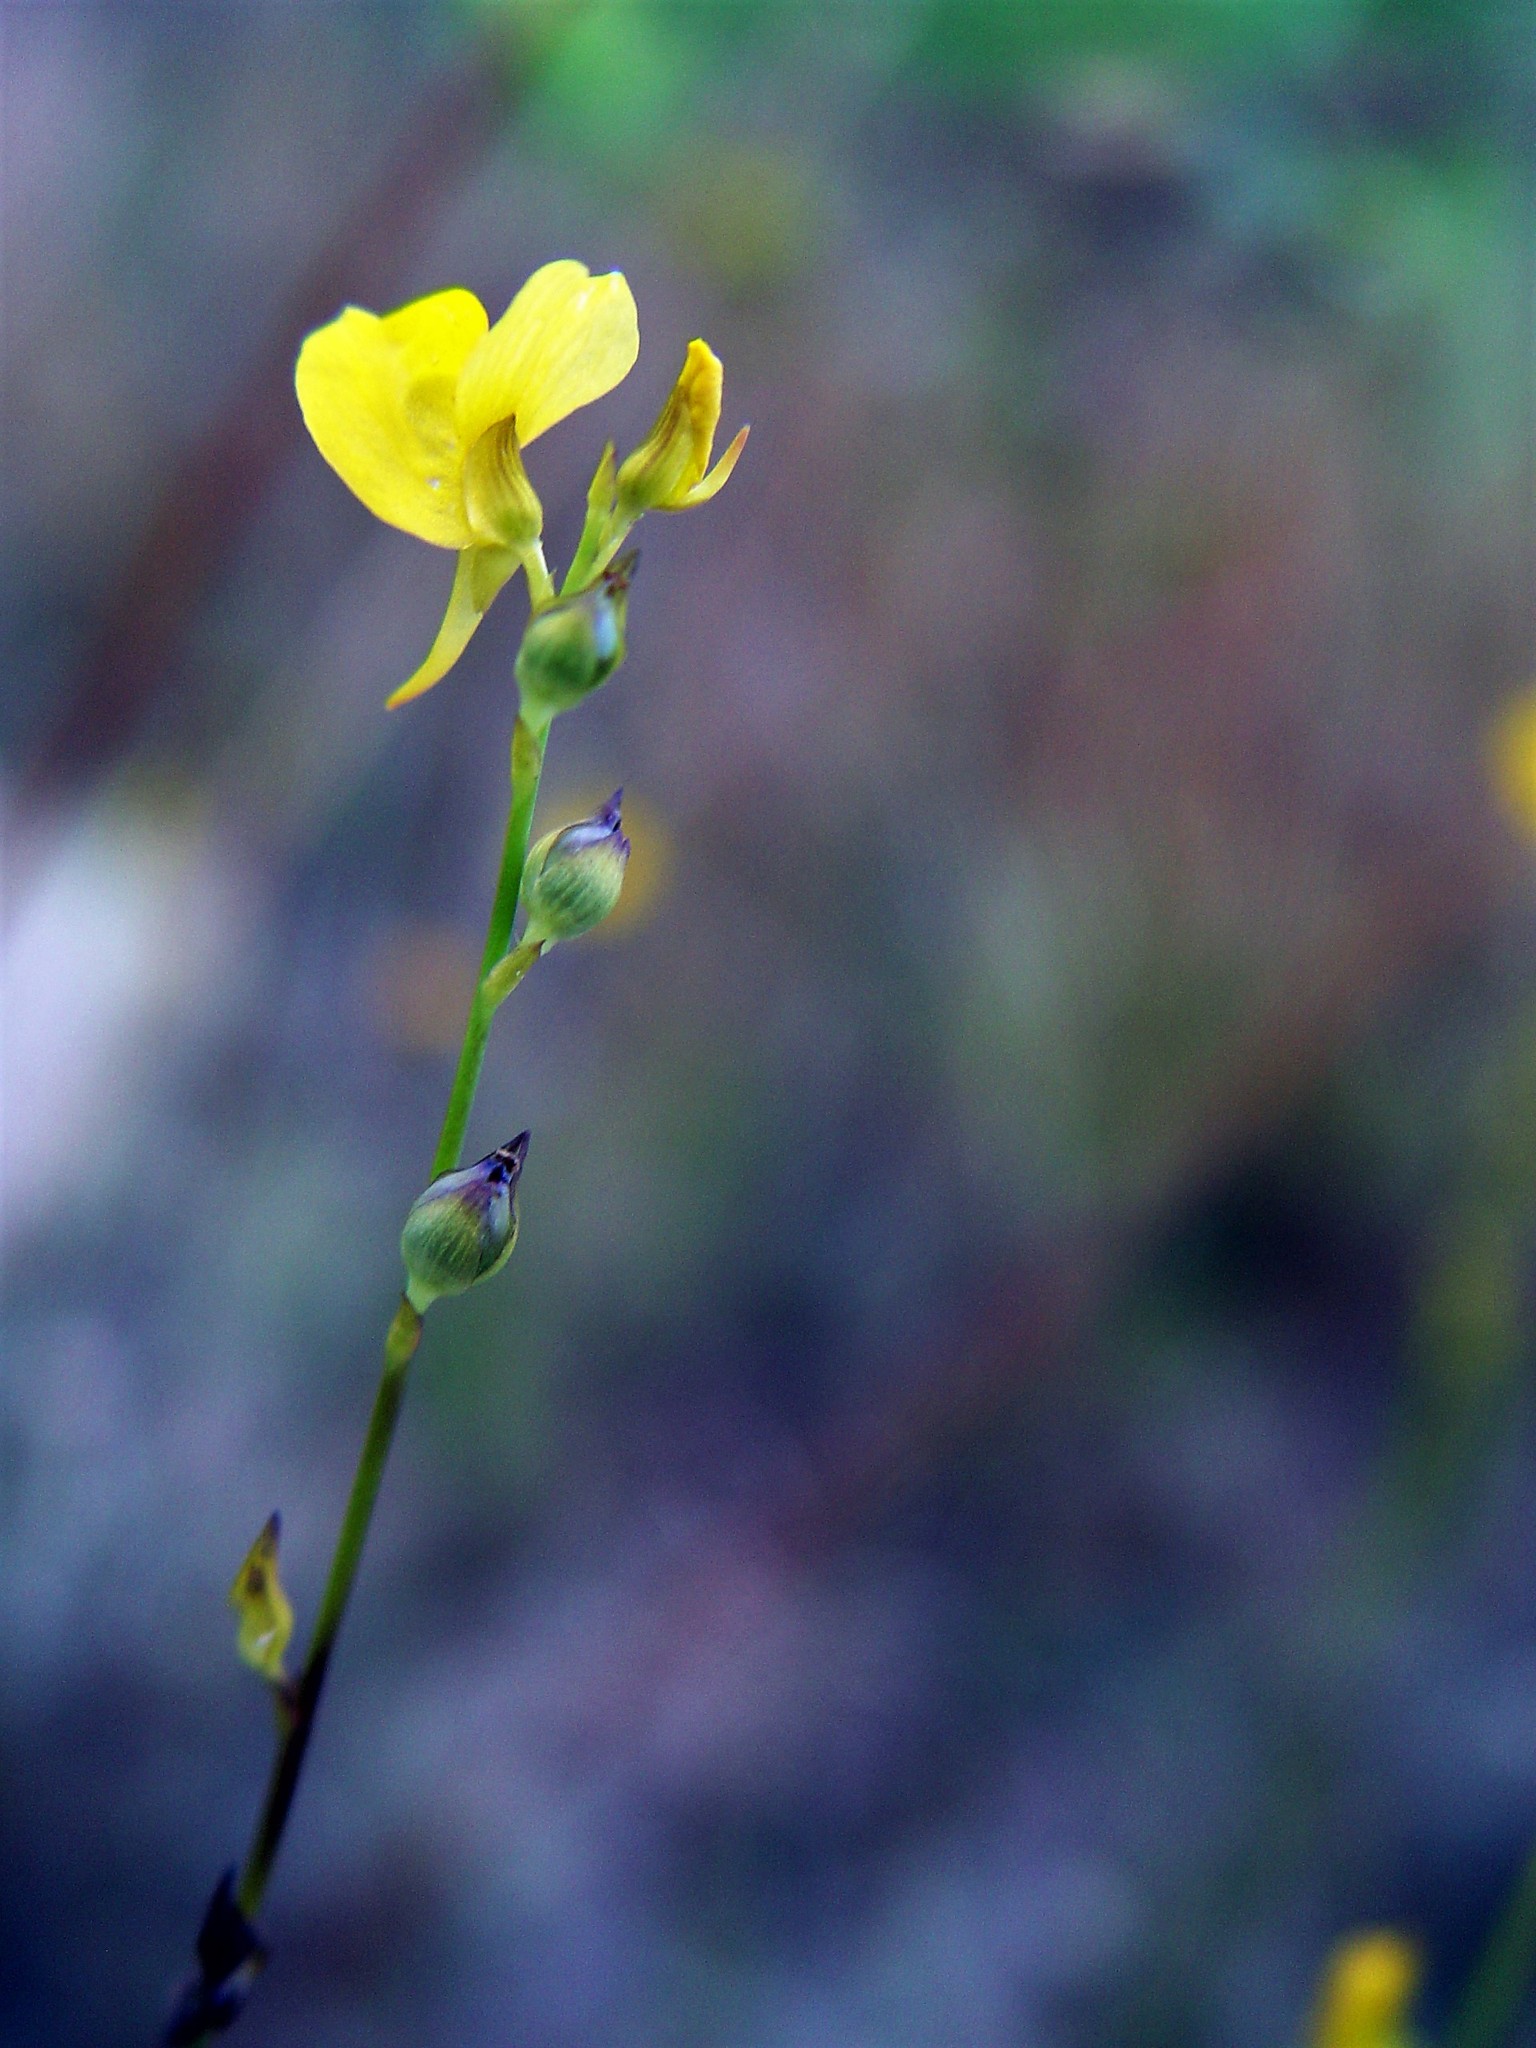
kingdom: Plantae
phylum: Tracheophyta
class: Magnoliopsida
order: Lamiales
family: Lentibulariaceae
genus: Utricularia
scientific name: Utricularia juncea
